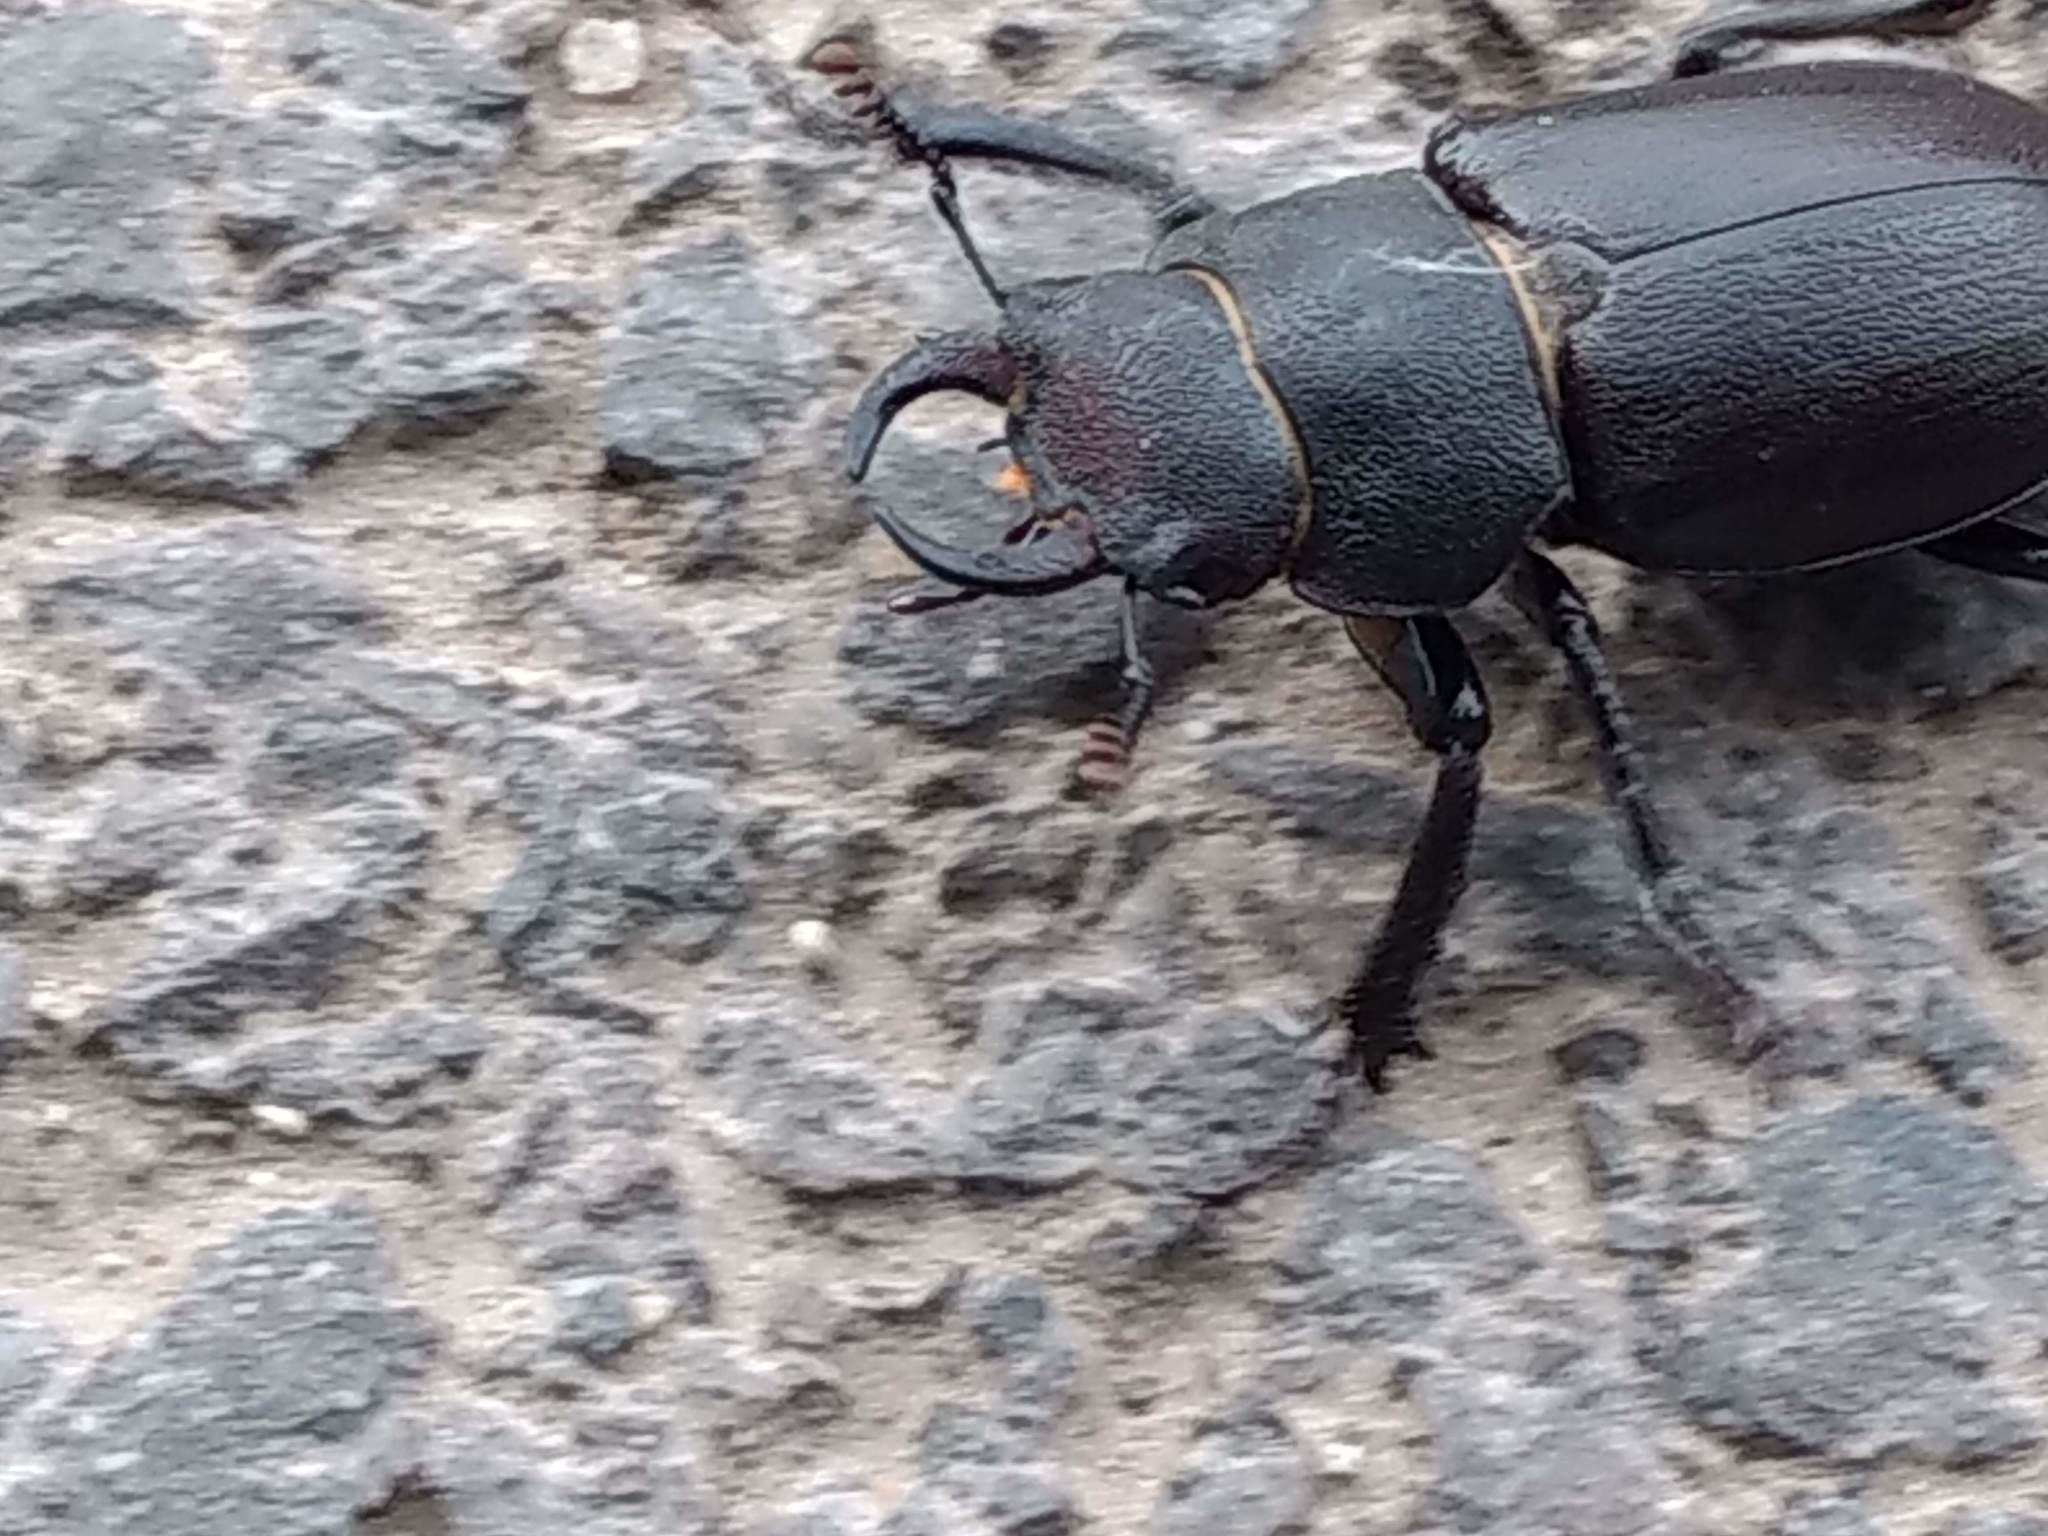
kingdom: Animalia
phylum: Arthropoda
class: Insecta
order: Coleoptera
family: Lucanidae
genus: Lucanus
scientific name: Lucanus mazama
